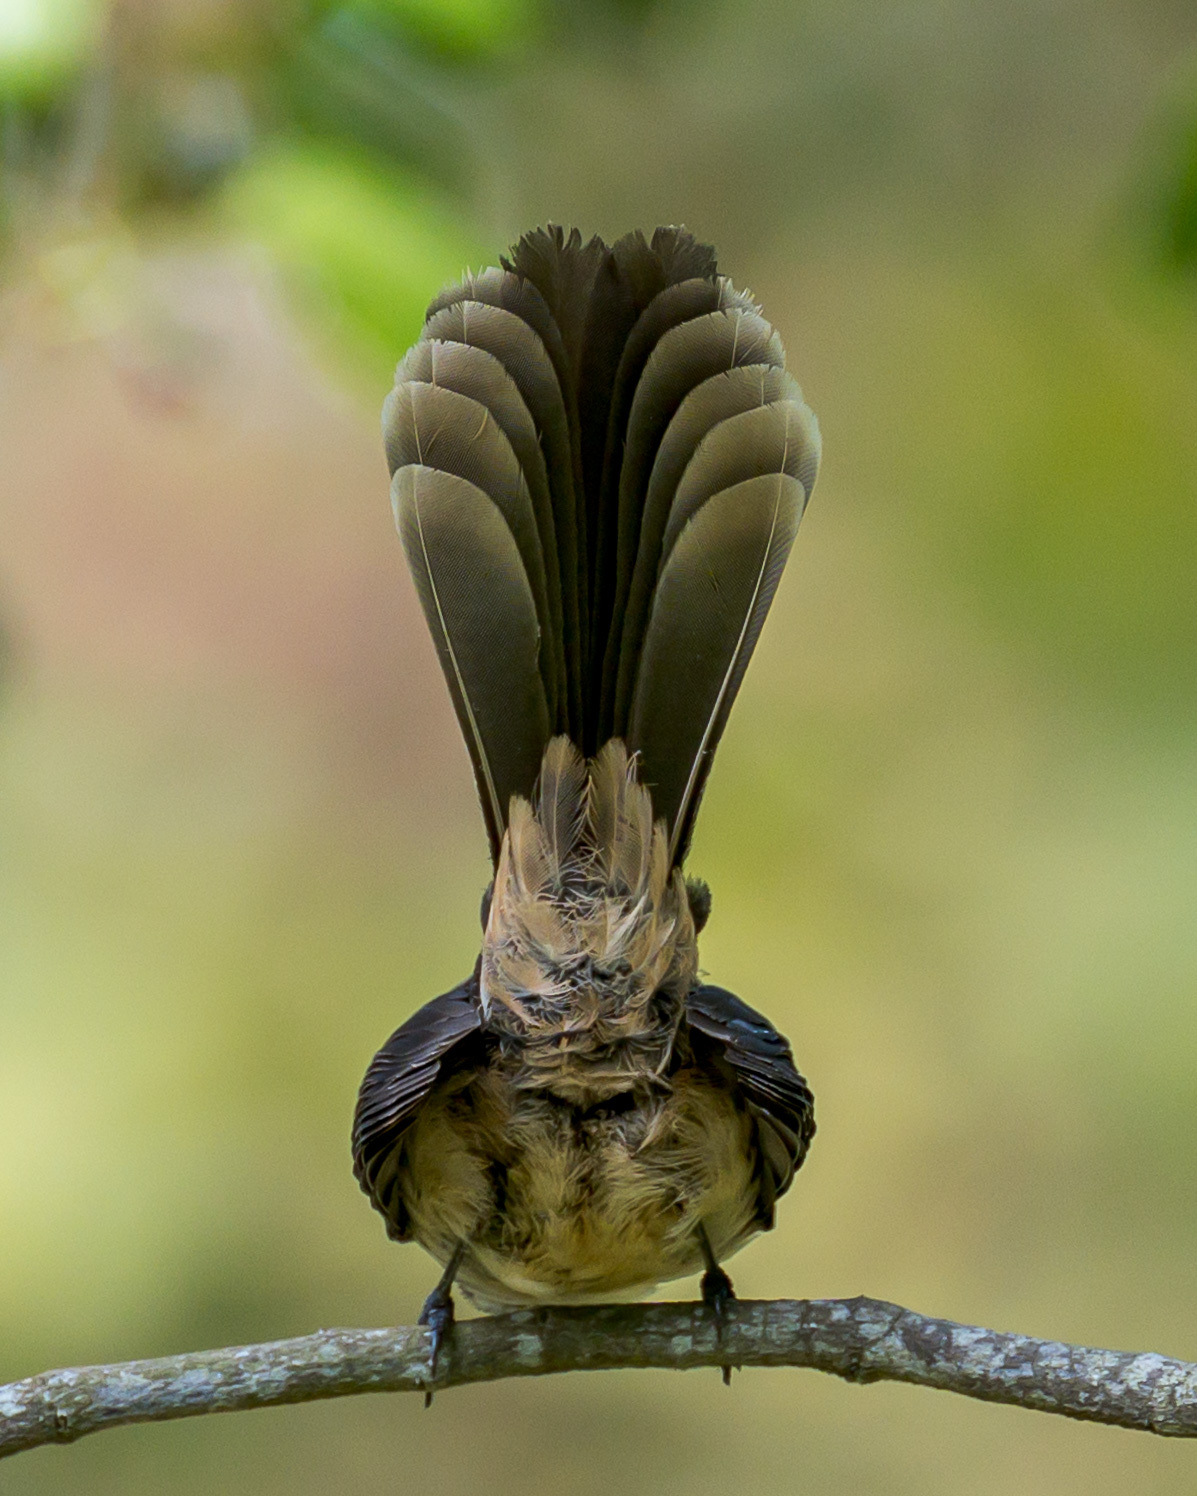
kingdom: Animalia
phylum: Chordata
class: Aves
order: Passeriformes
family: Rhipiduridae
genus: Rhipidura
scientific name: Rhipidura albogularis
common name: White-spotted fantail
